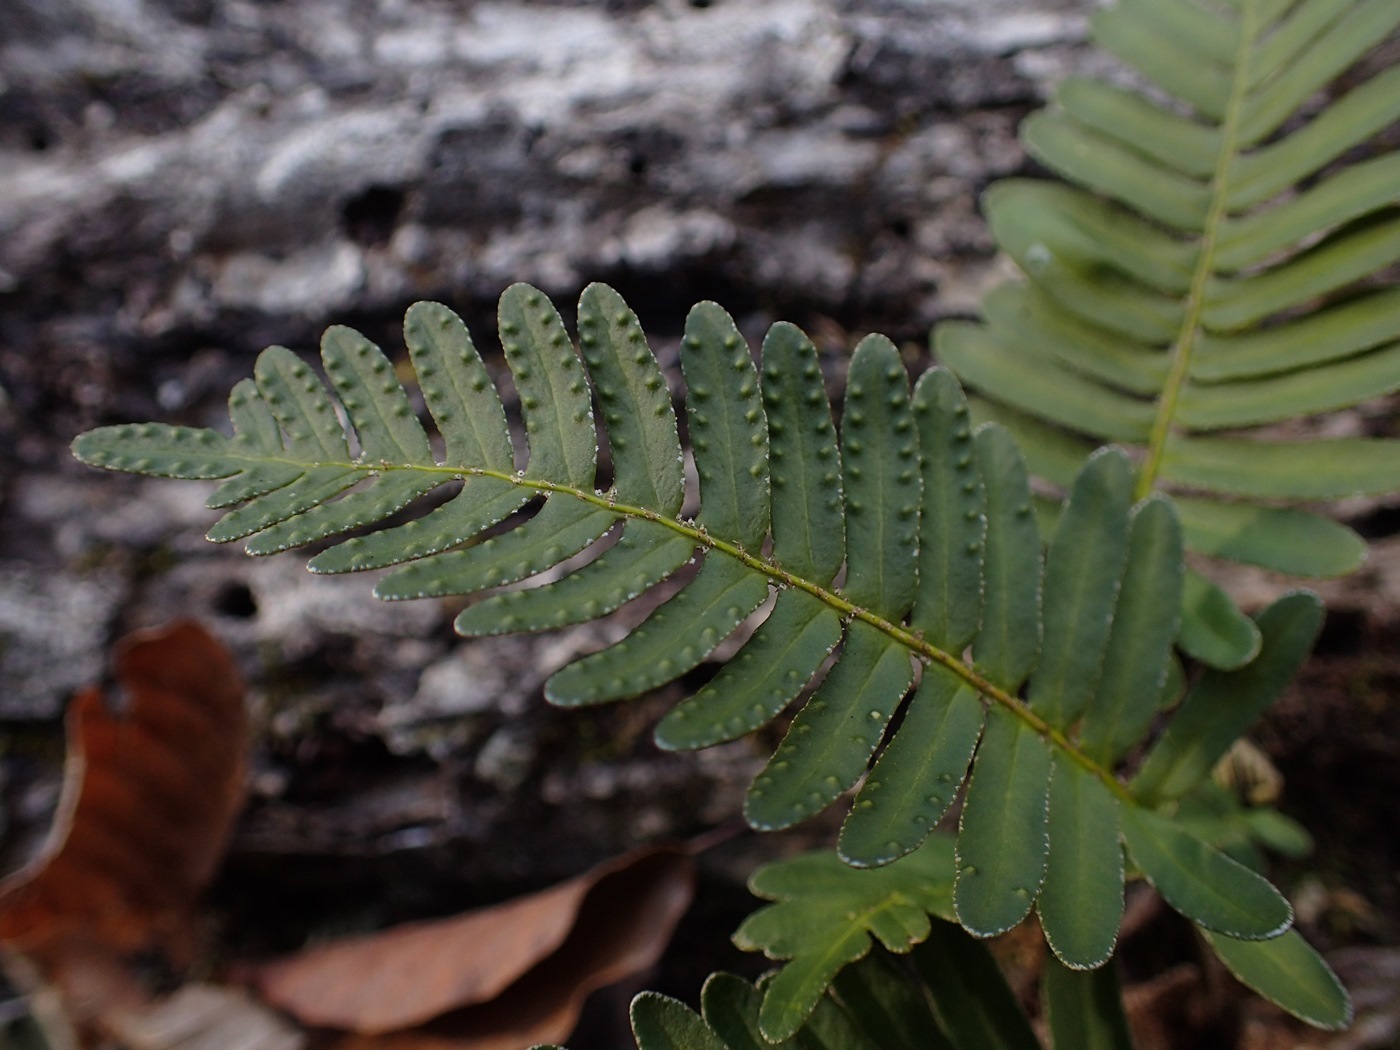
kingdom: Plantae
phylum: Tracheophyta
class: Polypodiopsida
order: Polypodiales
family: Polypodiaceae
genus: Pleopeltis
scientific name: Pleopeltis michauxiana
